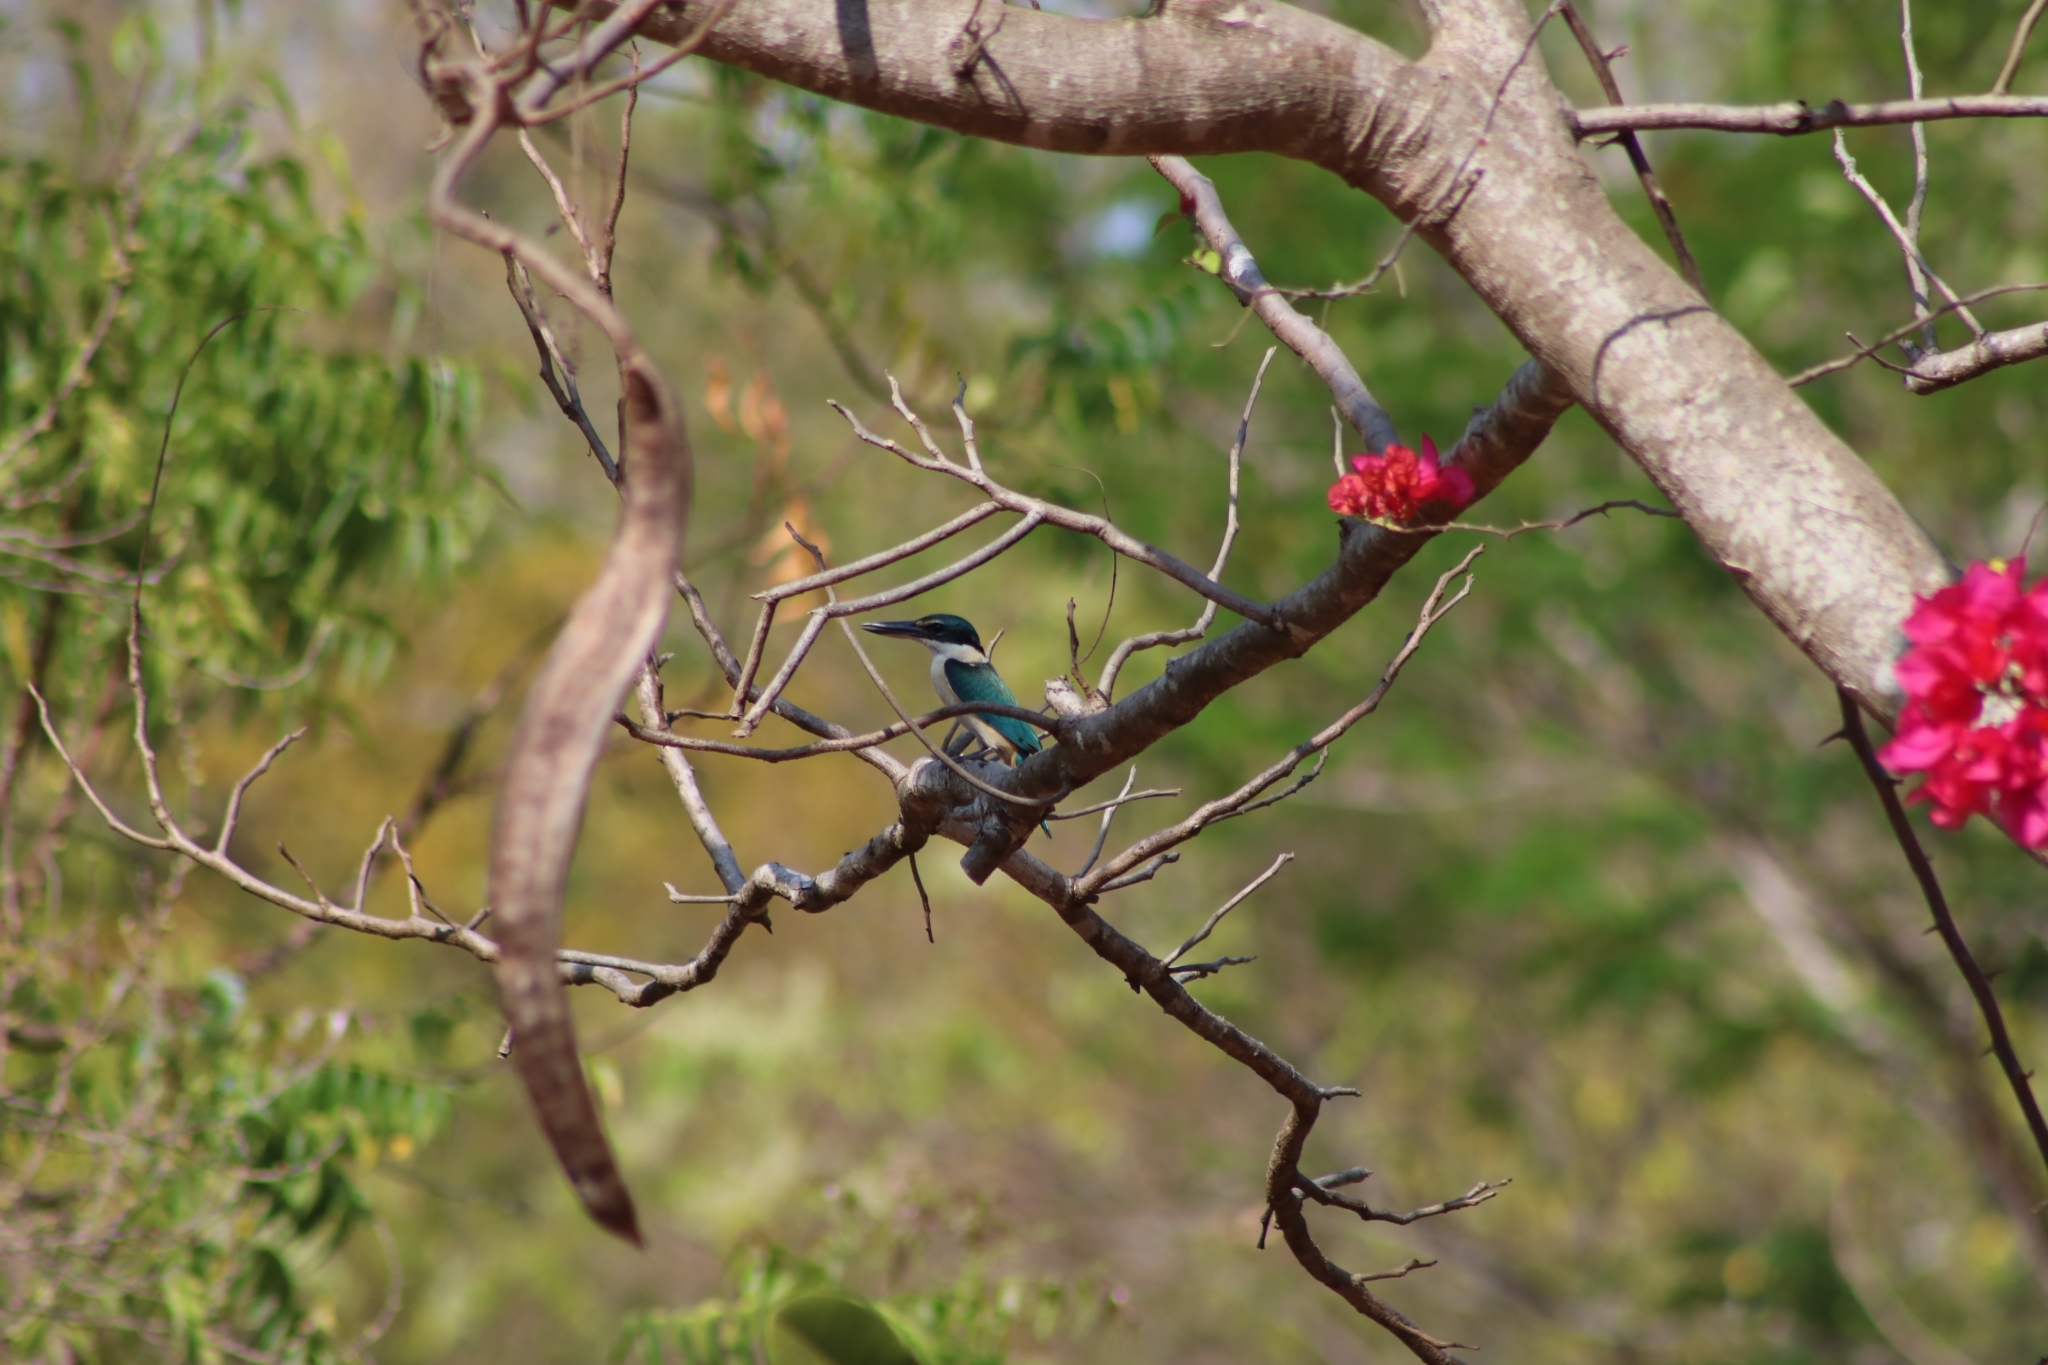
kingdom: Animalia
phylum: Chordata
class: Aves
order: Coraciiformes
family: Alcedinidae
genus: Todiramphus
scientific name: Todiramphus sanctus
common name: Sacred kingfisher
